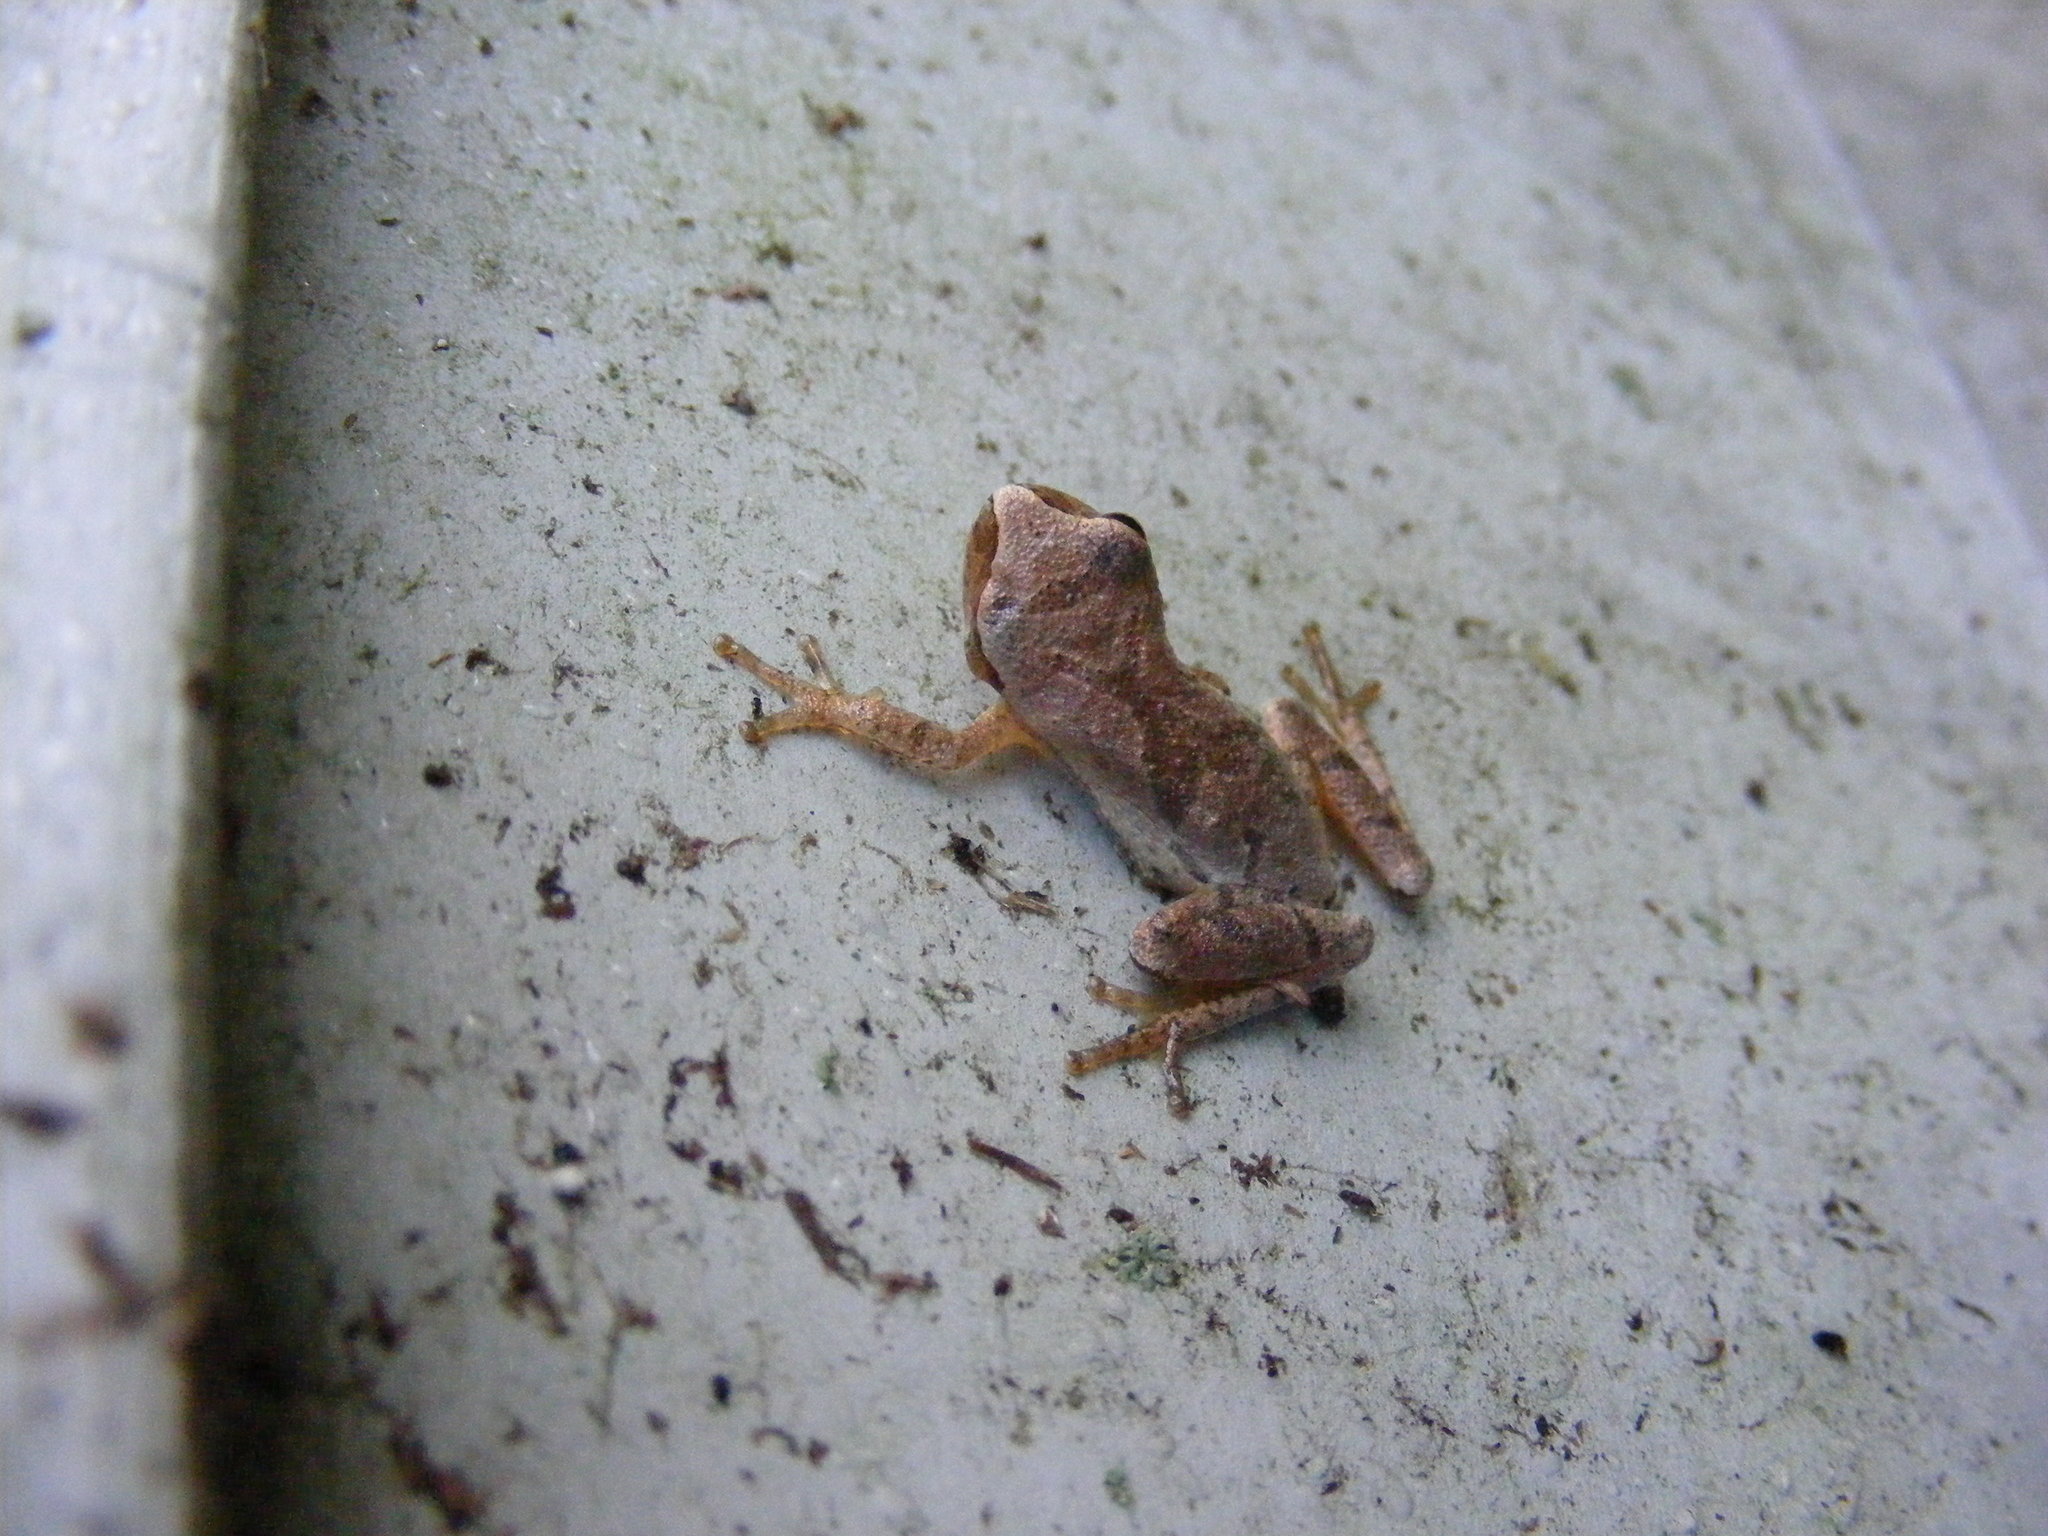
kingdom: Animalia
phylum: Chordata
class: Amphibia
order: Anura
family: Hylidae
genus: Pseudacris
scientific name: Pseudacris crucifer
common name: Spring peeper
